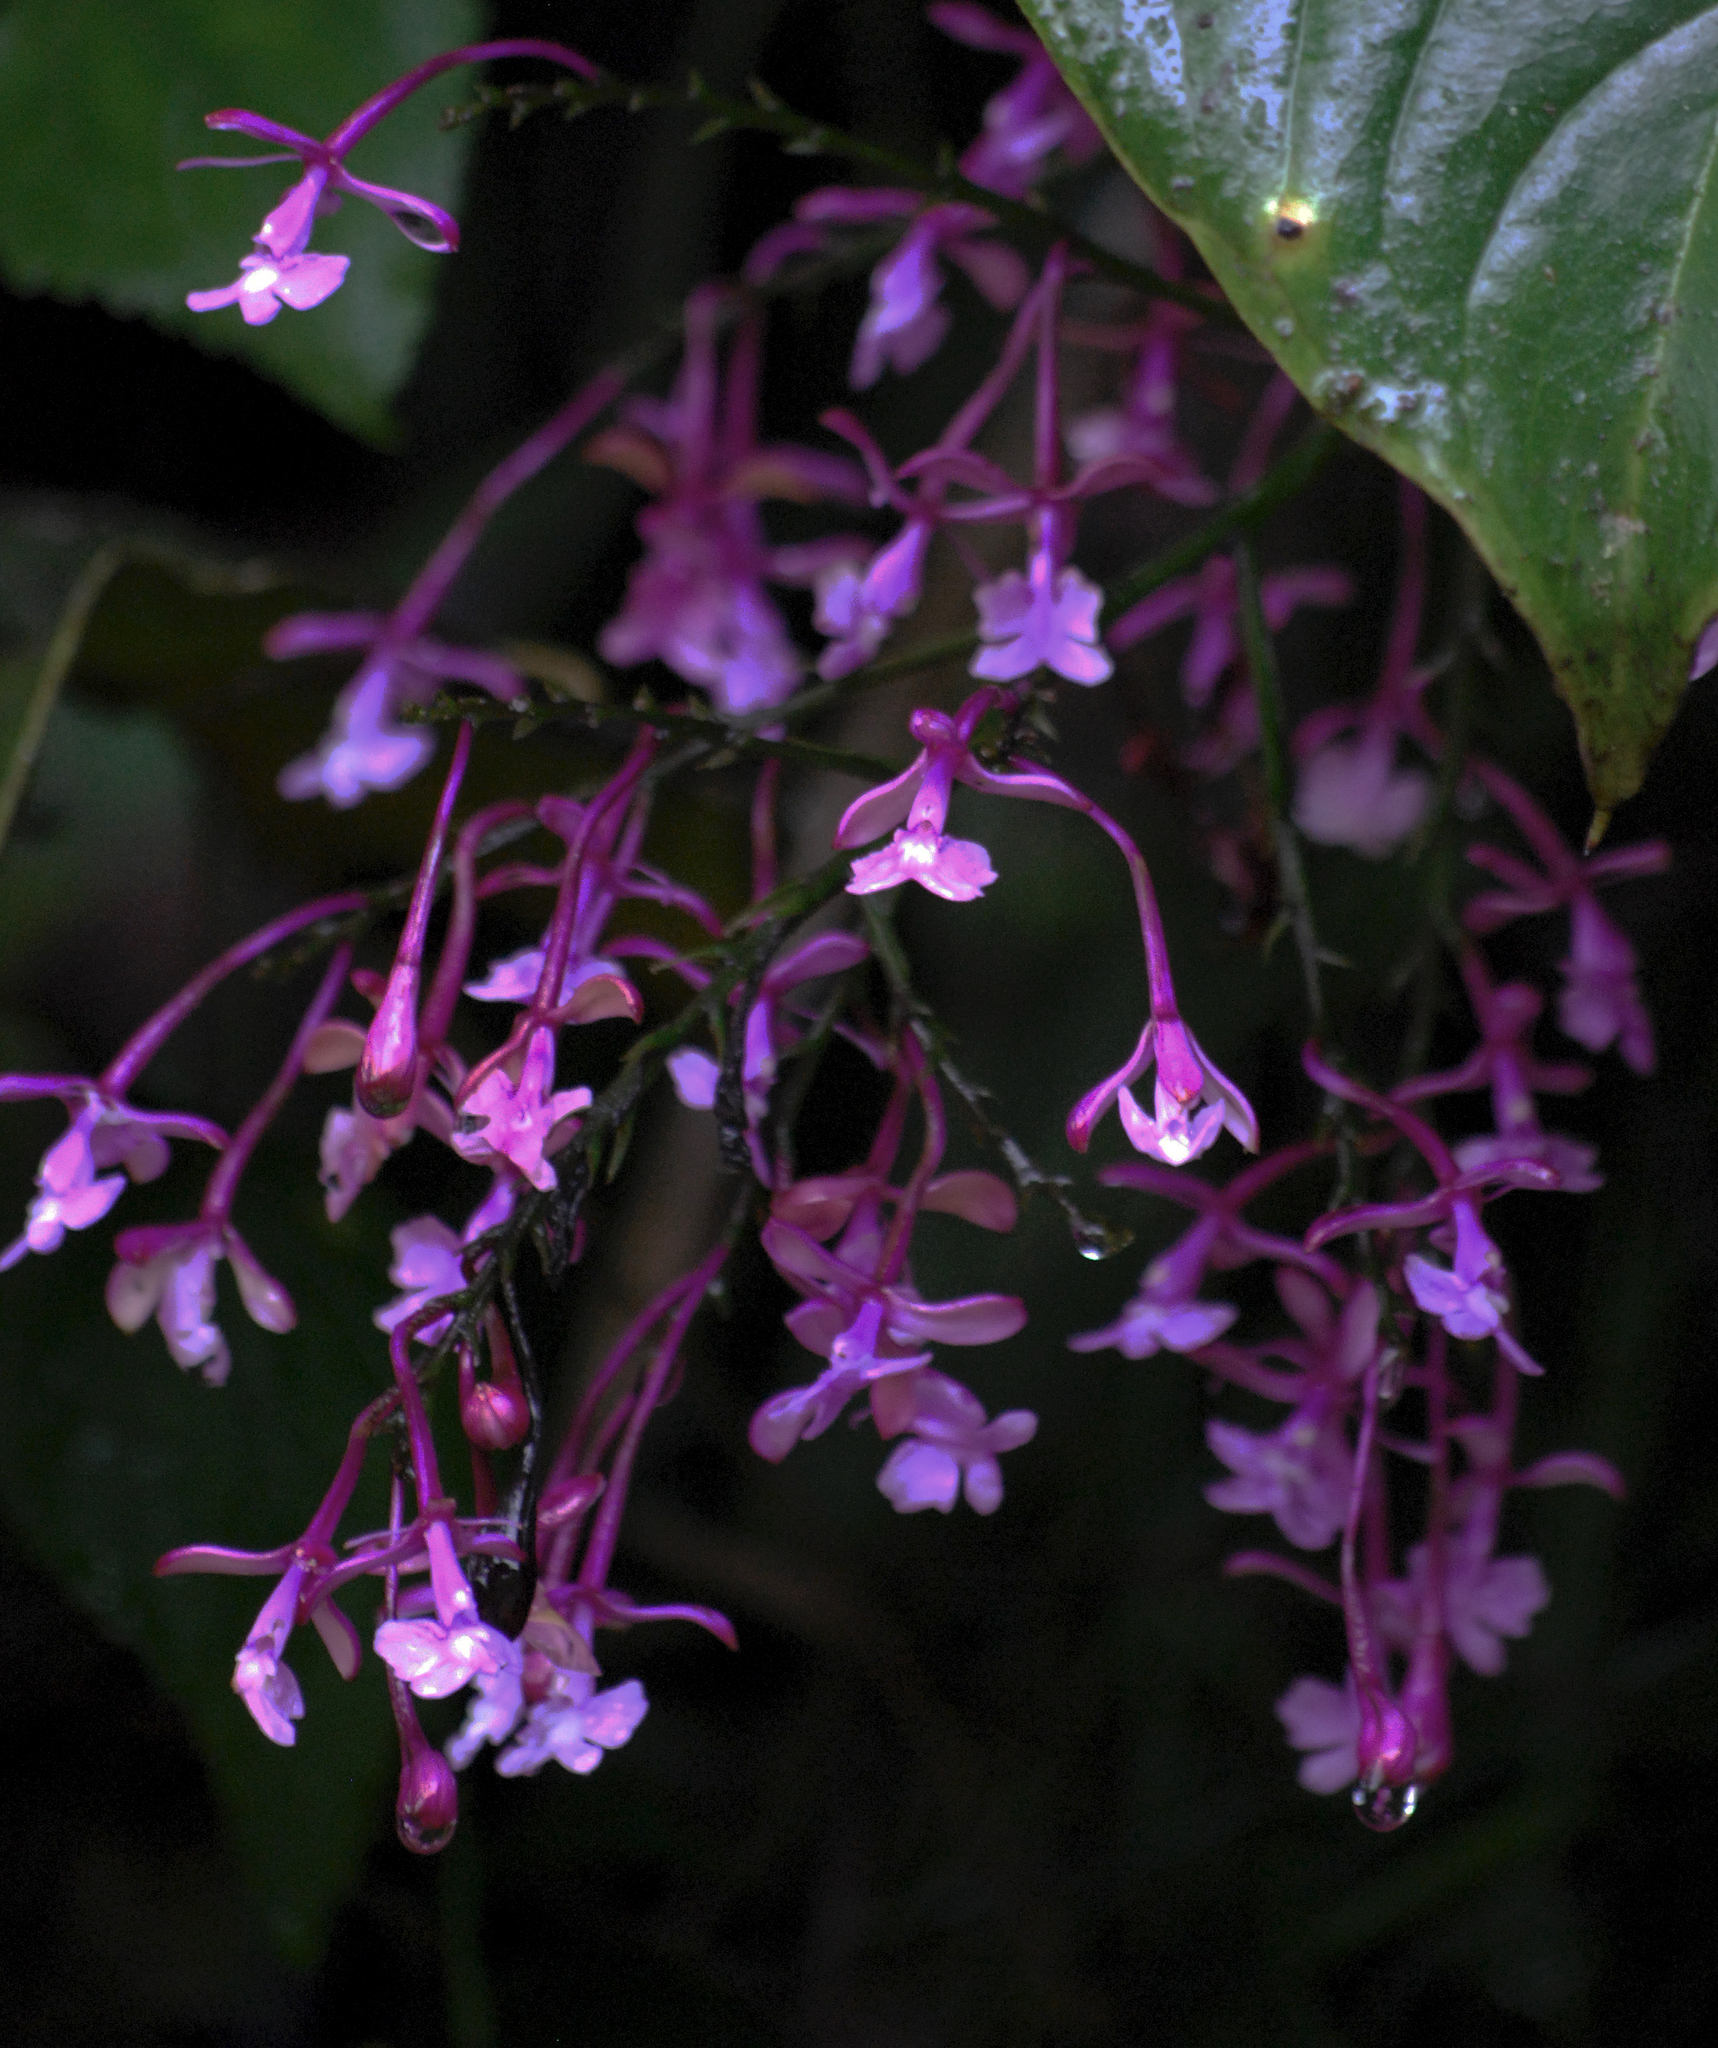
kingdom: Plantae
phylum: Tracheophyta
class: Liliopsida
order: Asparagales
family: Orchidaceae
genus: Epidendrum
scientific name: Epidendrum laeve
